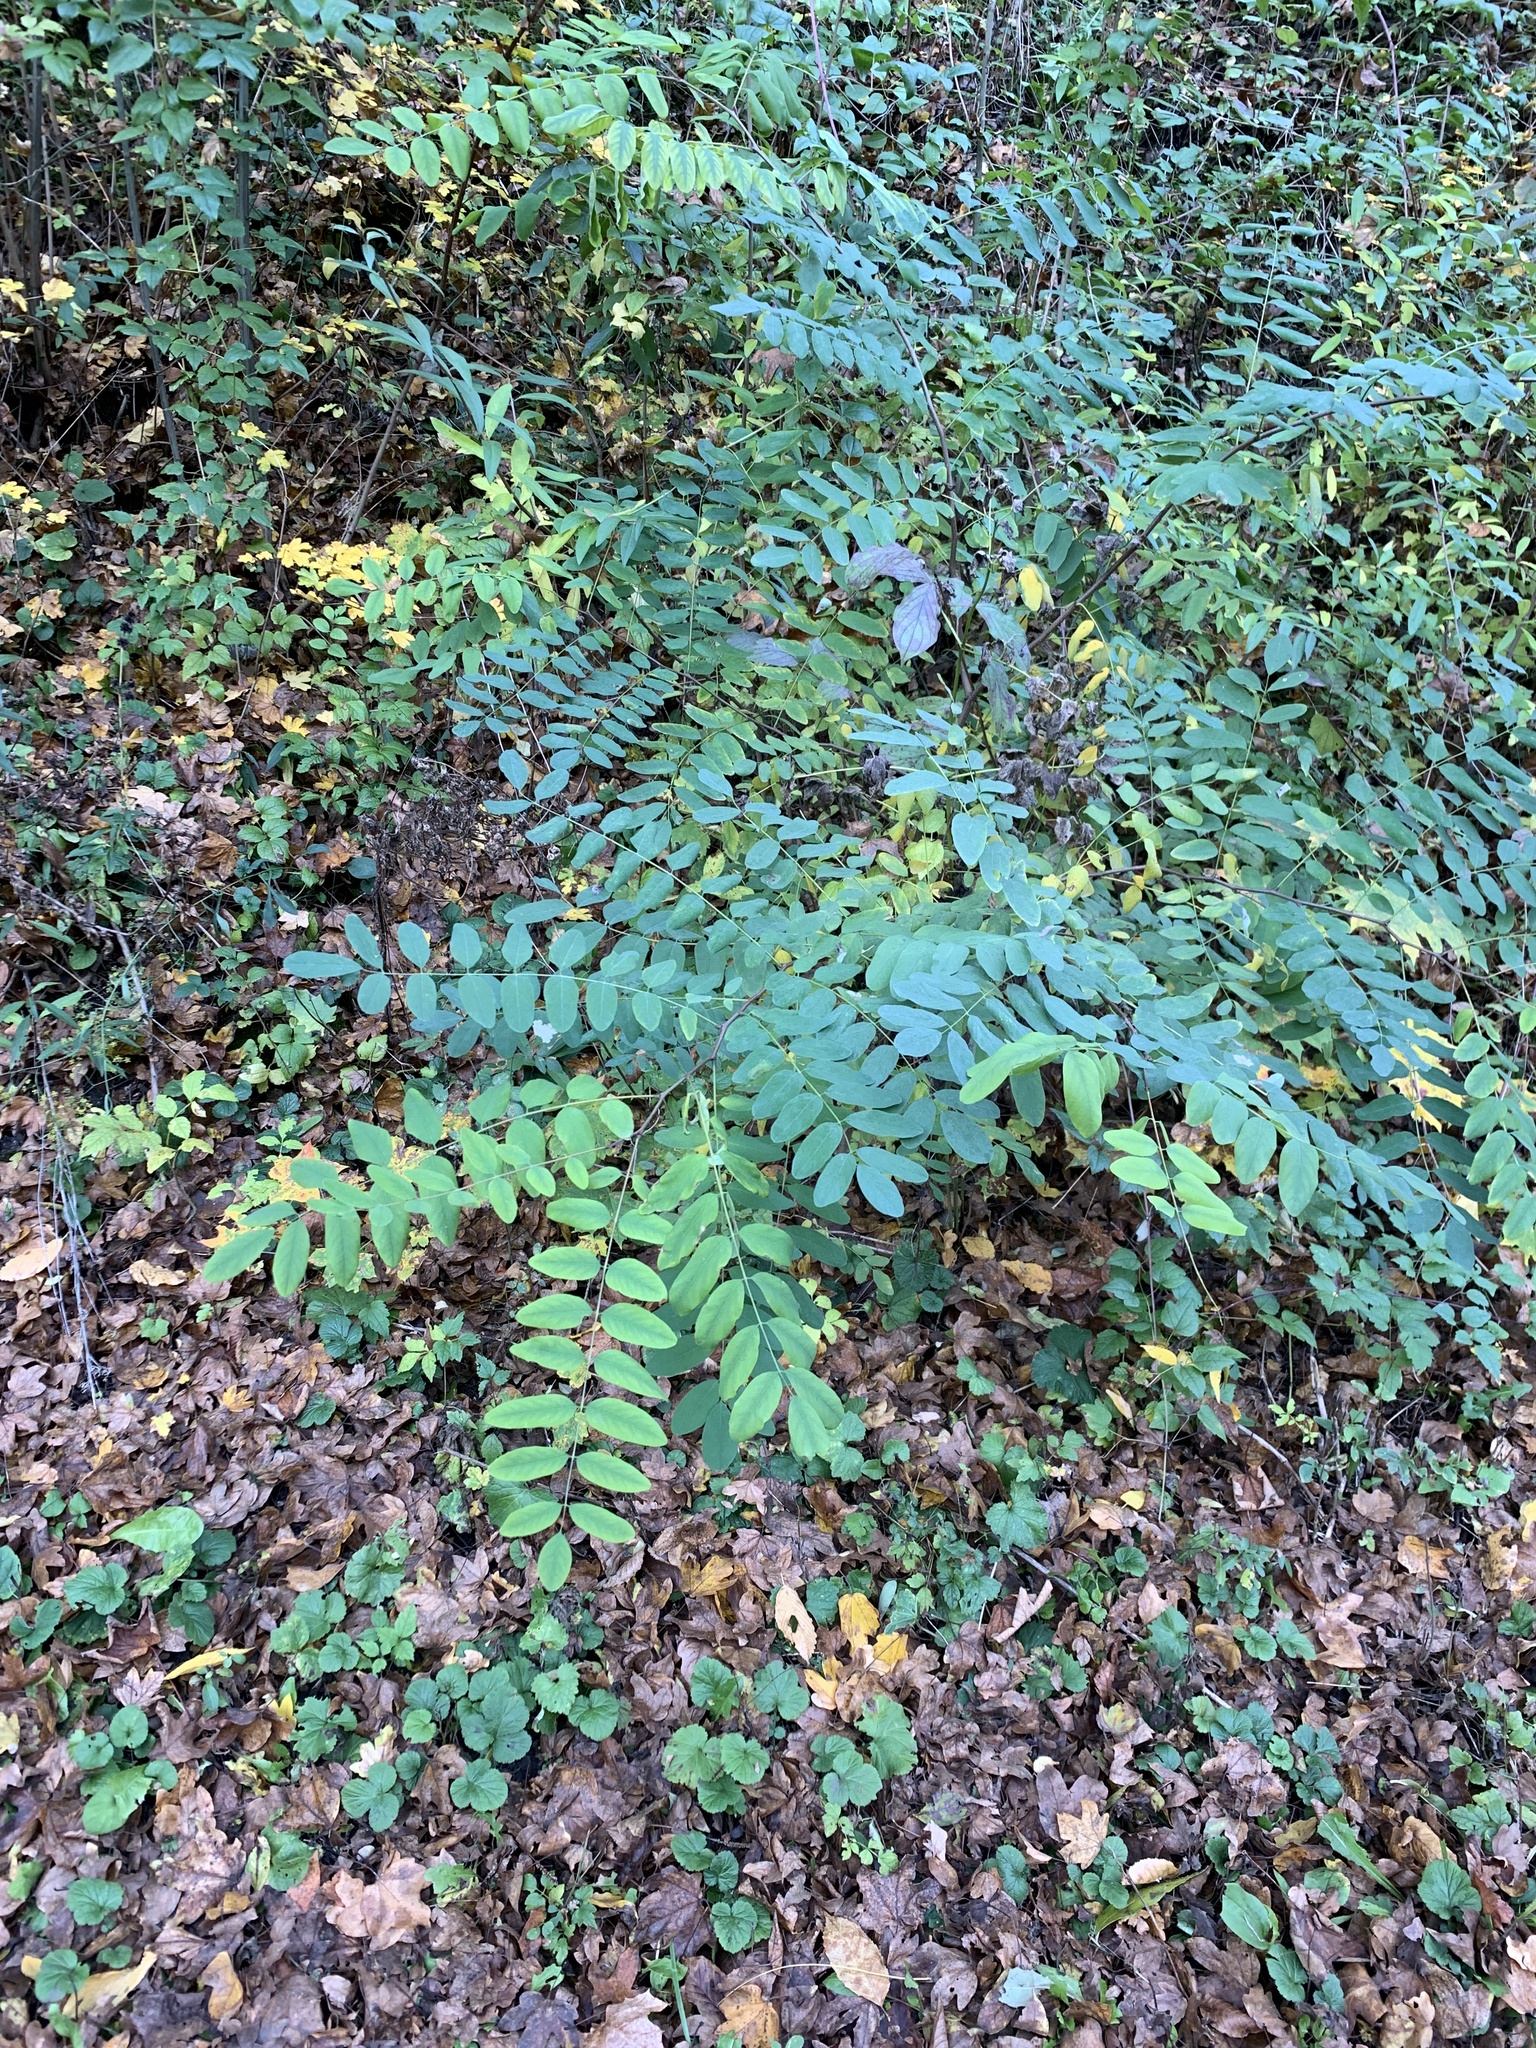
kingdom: Plantae
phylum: Tracheophyta
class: Magnoliopsida
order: Fabales
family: Fabaceae
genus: Robinia
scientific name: Robinia pseudoacacia
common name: Black locust
